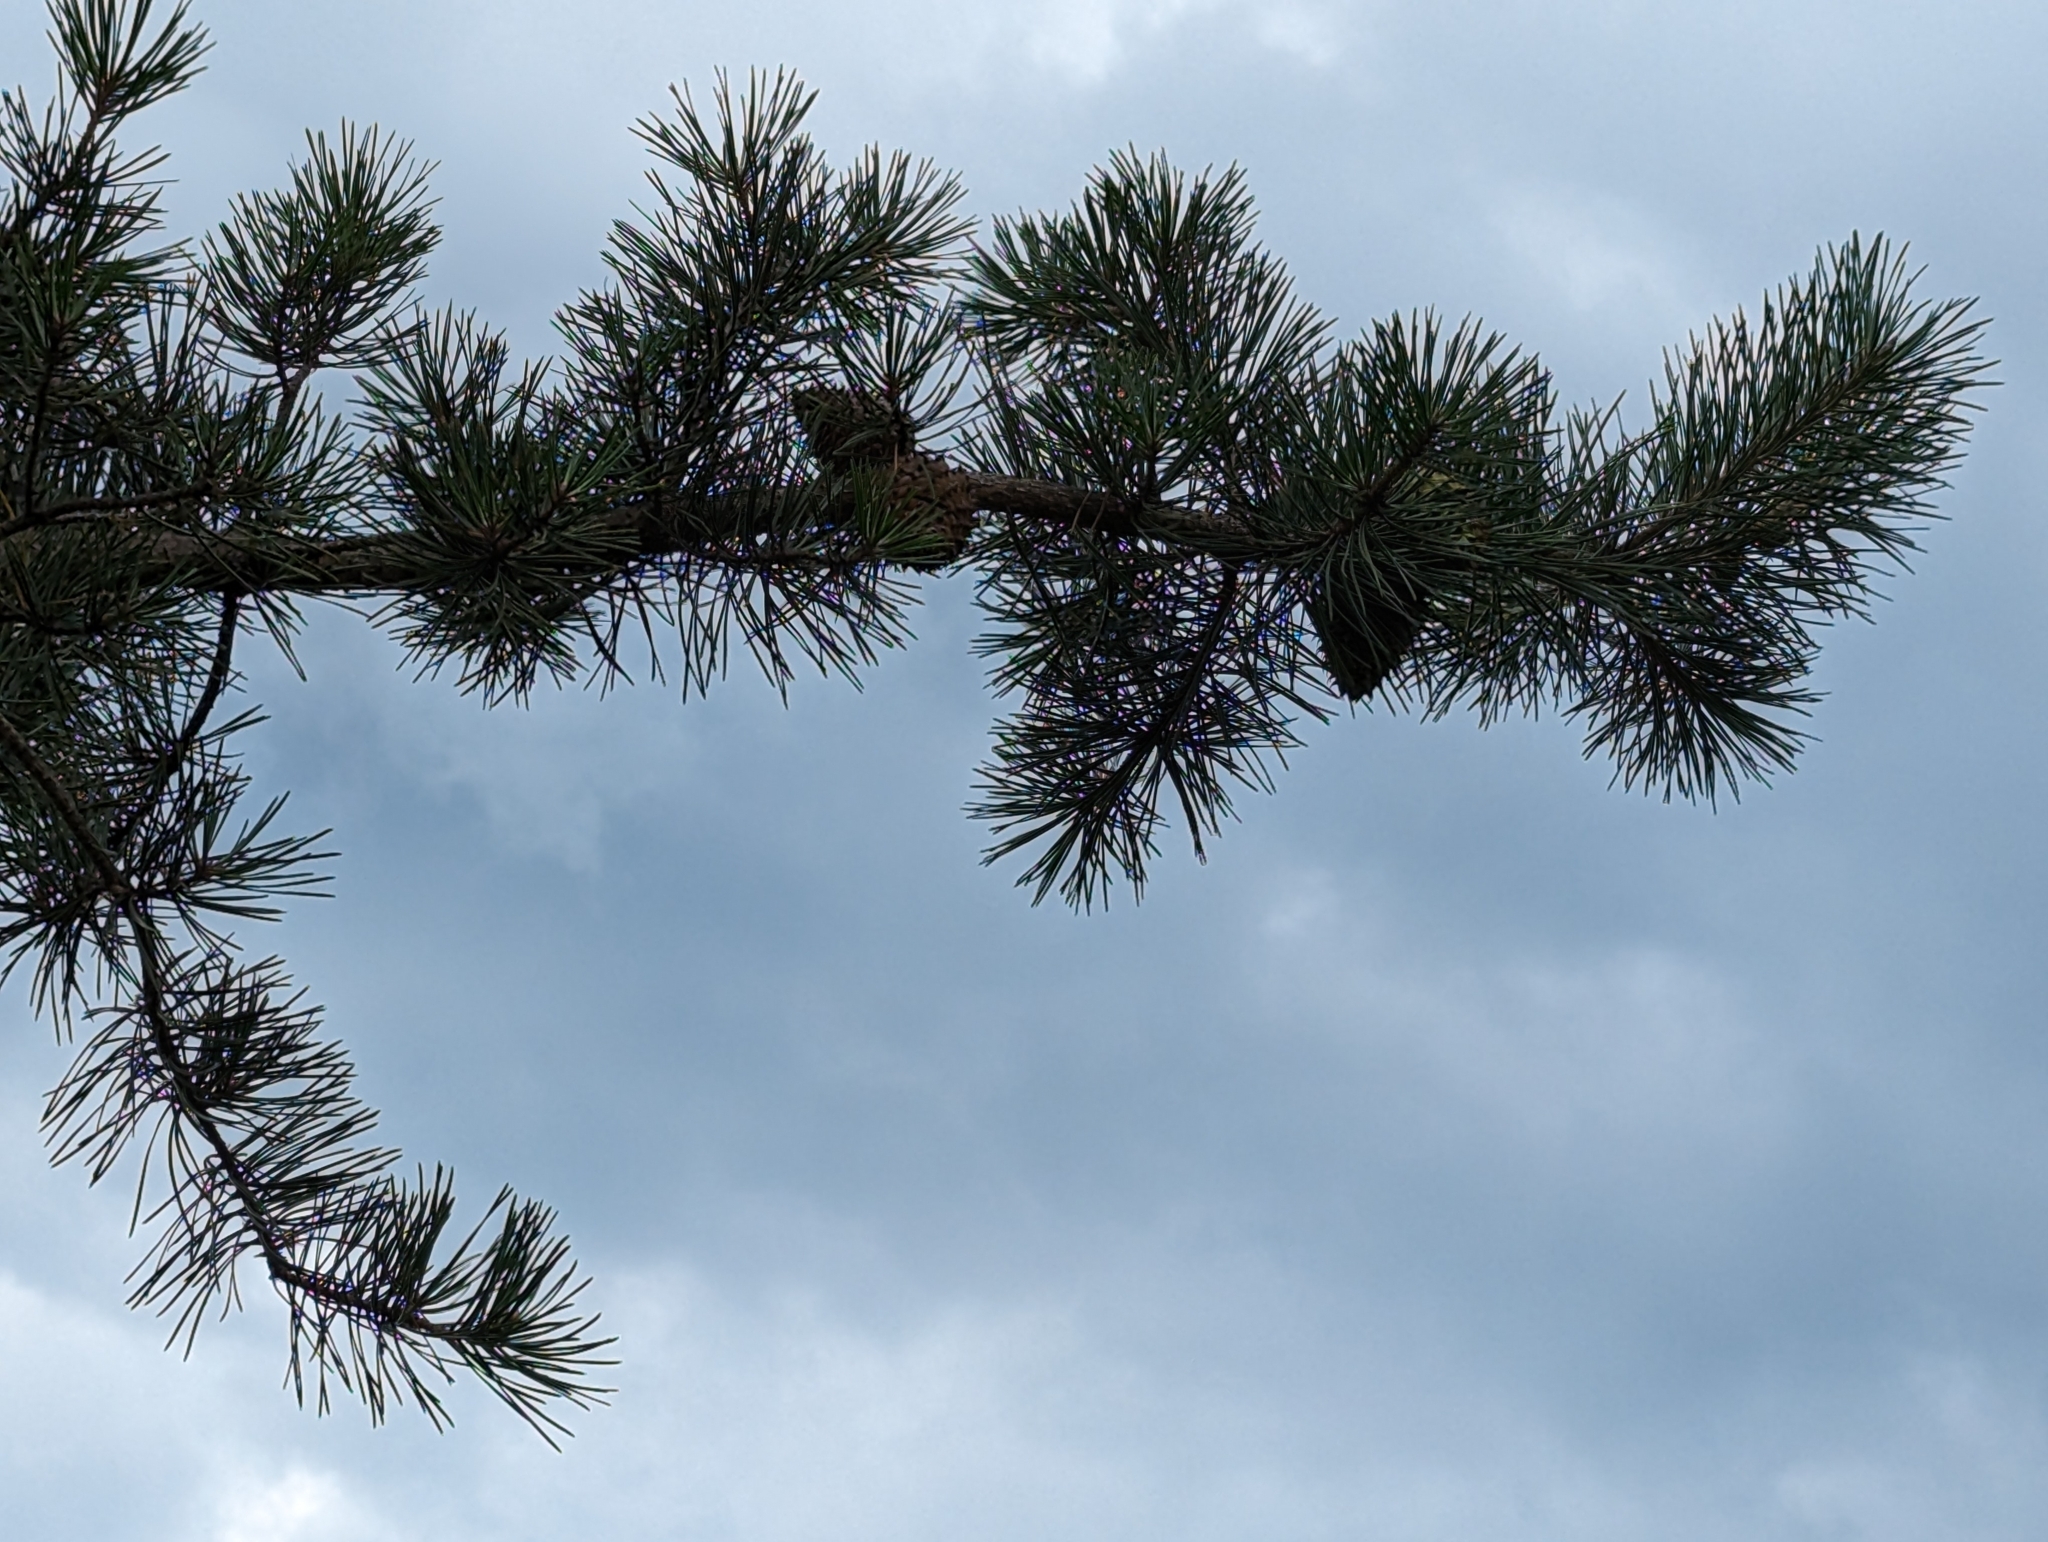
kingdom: Plantae
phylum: Tracheophyta
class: Pinopsida
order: Pinales
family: Pinaceae
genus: Pinus
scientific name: Pinus pungens
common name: Hickory pine
